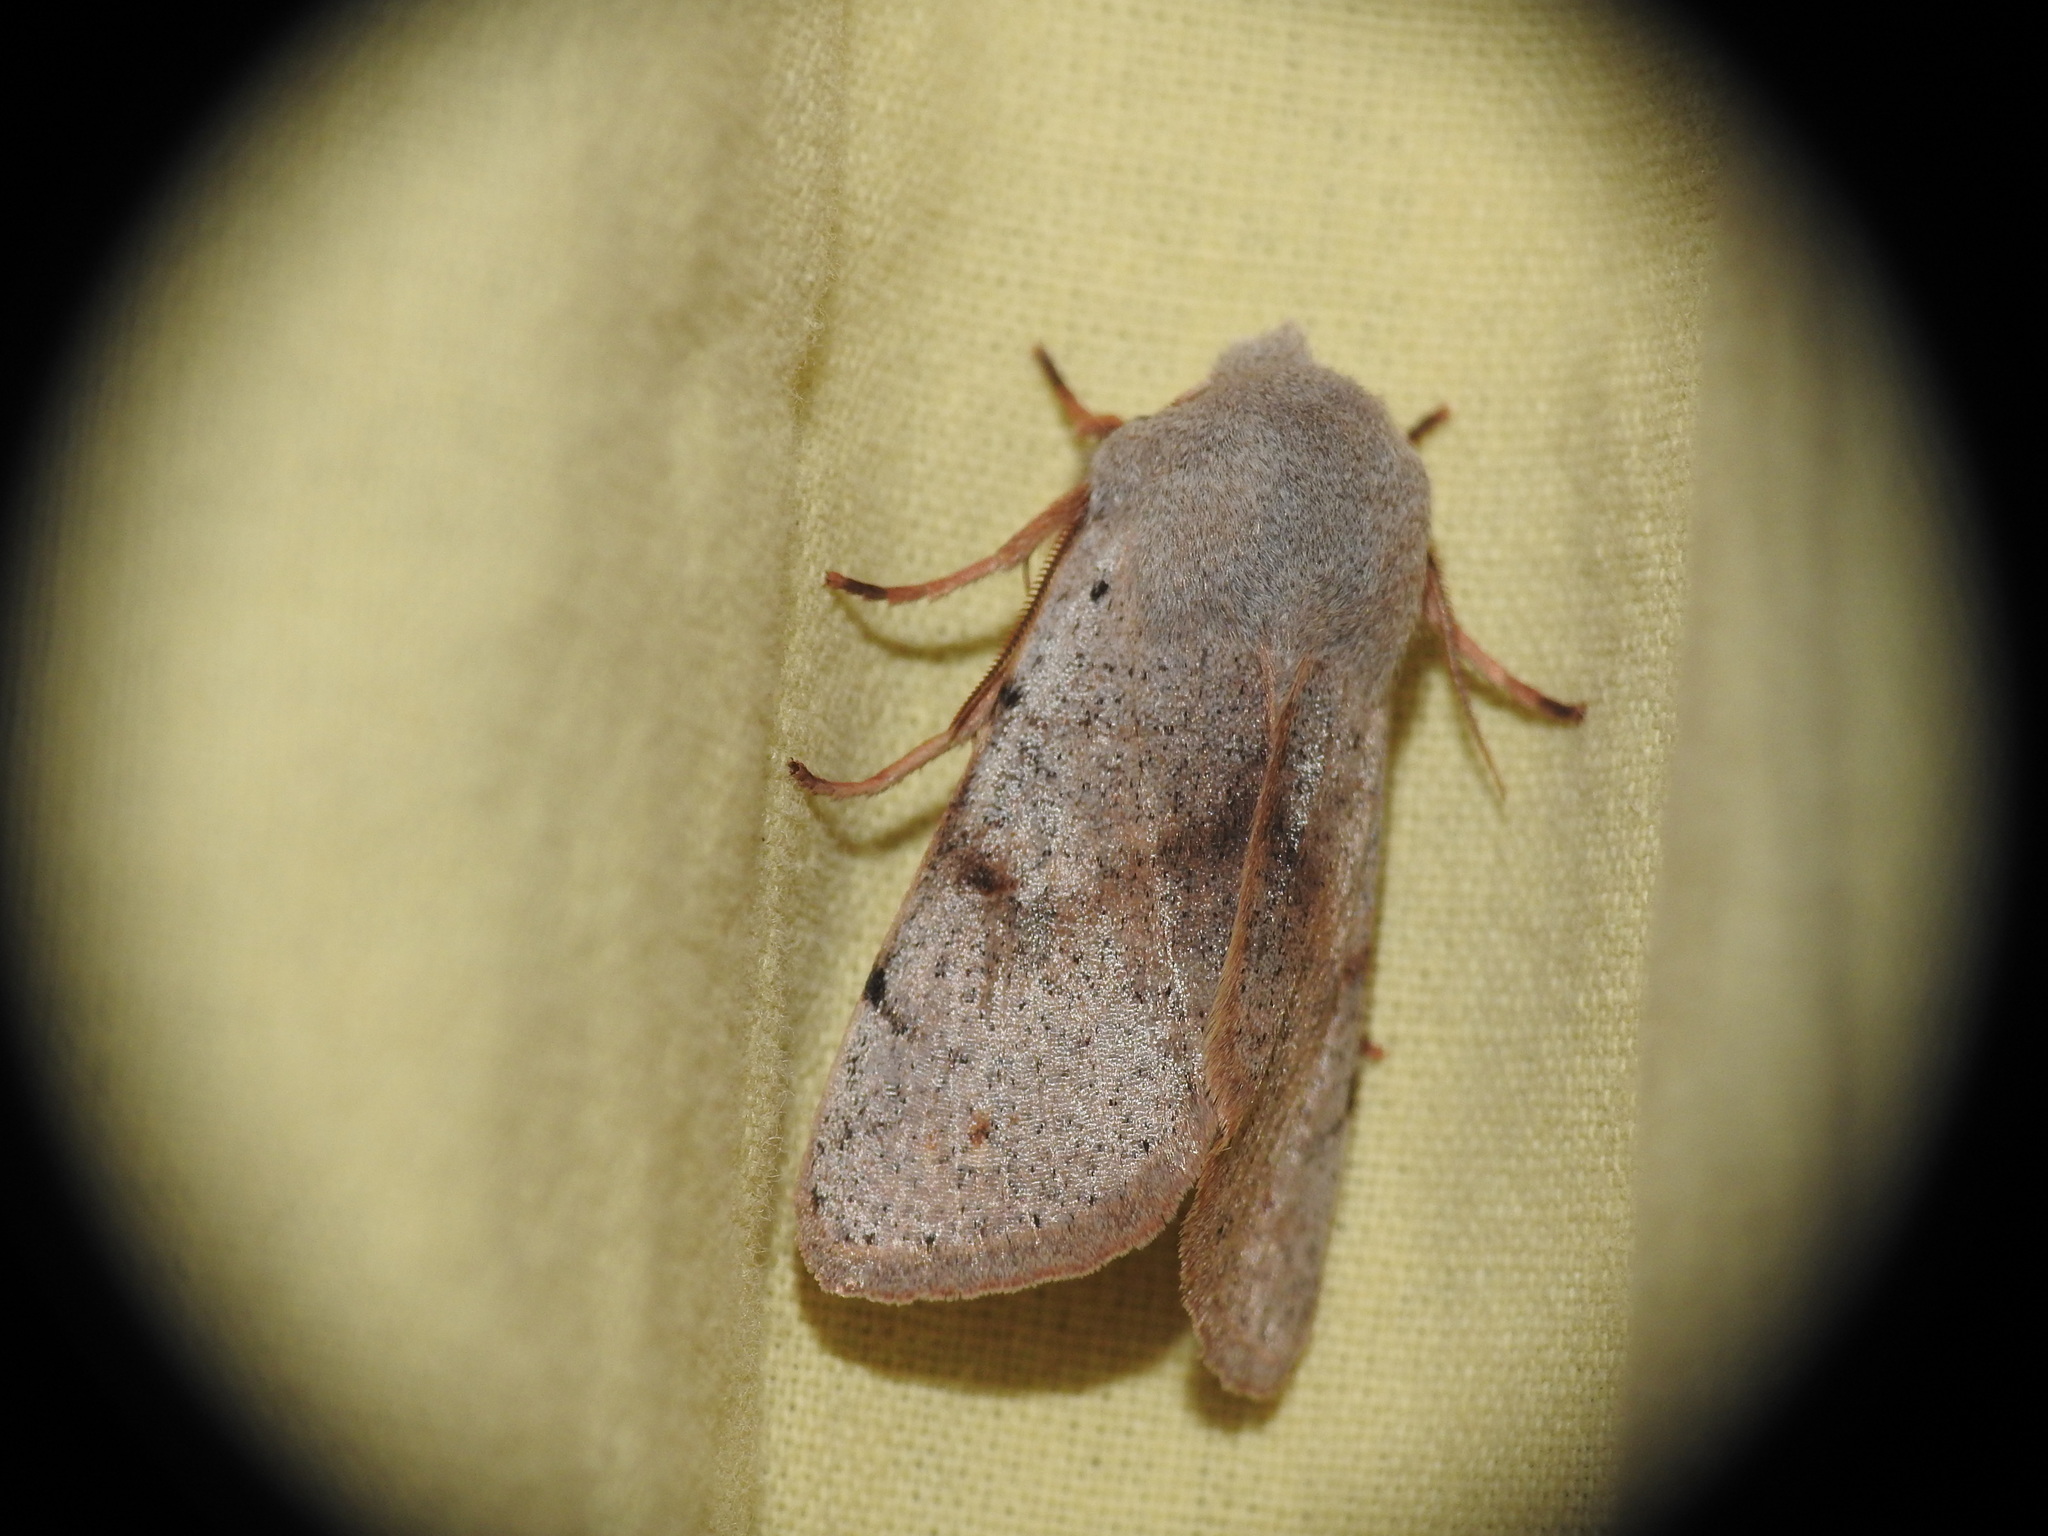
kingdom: Animalia
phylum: Arthropoda
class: Insecta
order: Lepidoptera
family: Noctuidae
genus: Perigrapha
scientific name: Perigrapha rorida
